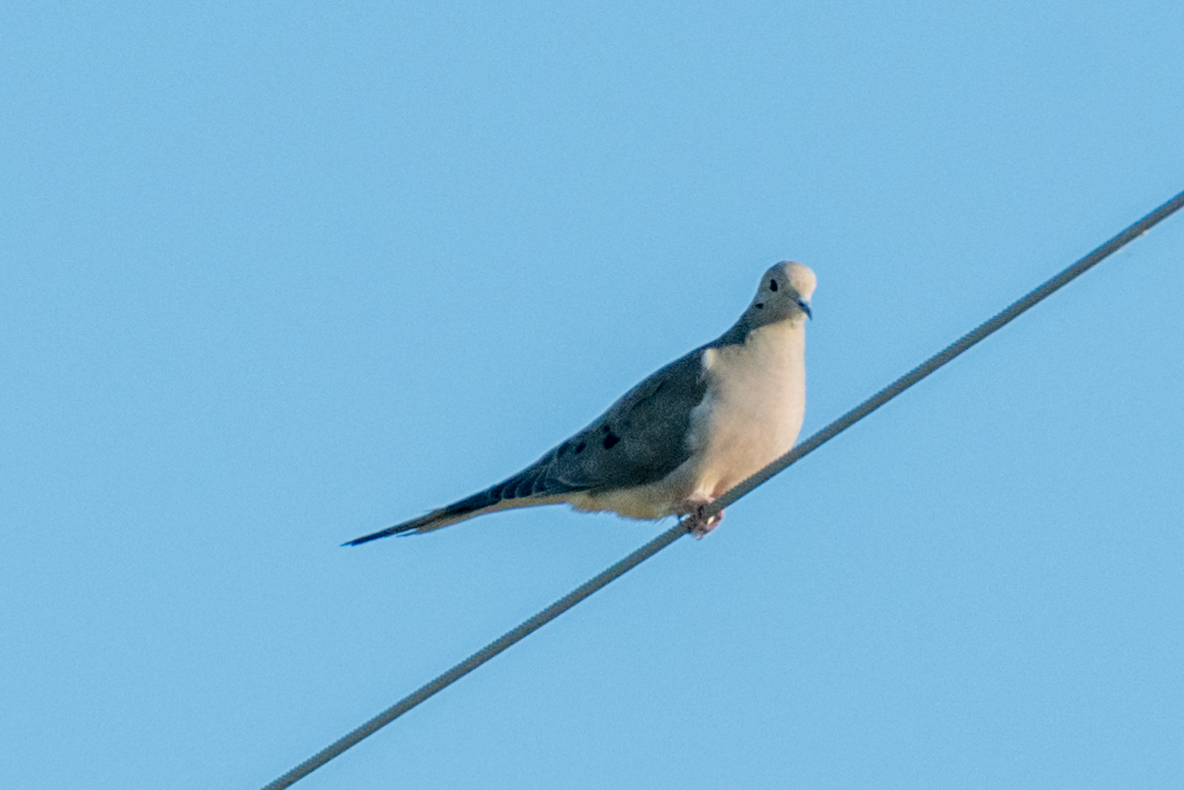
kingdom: Animalia
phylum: Chordata
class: Aves
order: Columbiformes
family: Columbidae
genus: Zenaida
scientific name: Zenaida macroura
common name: Mourning dove
